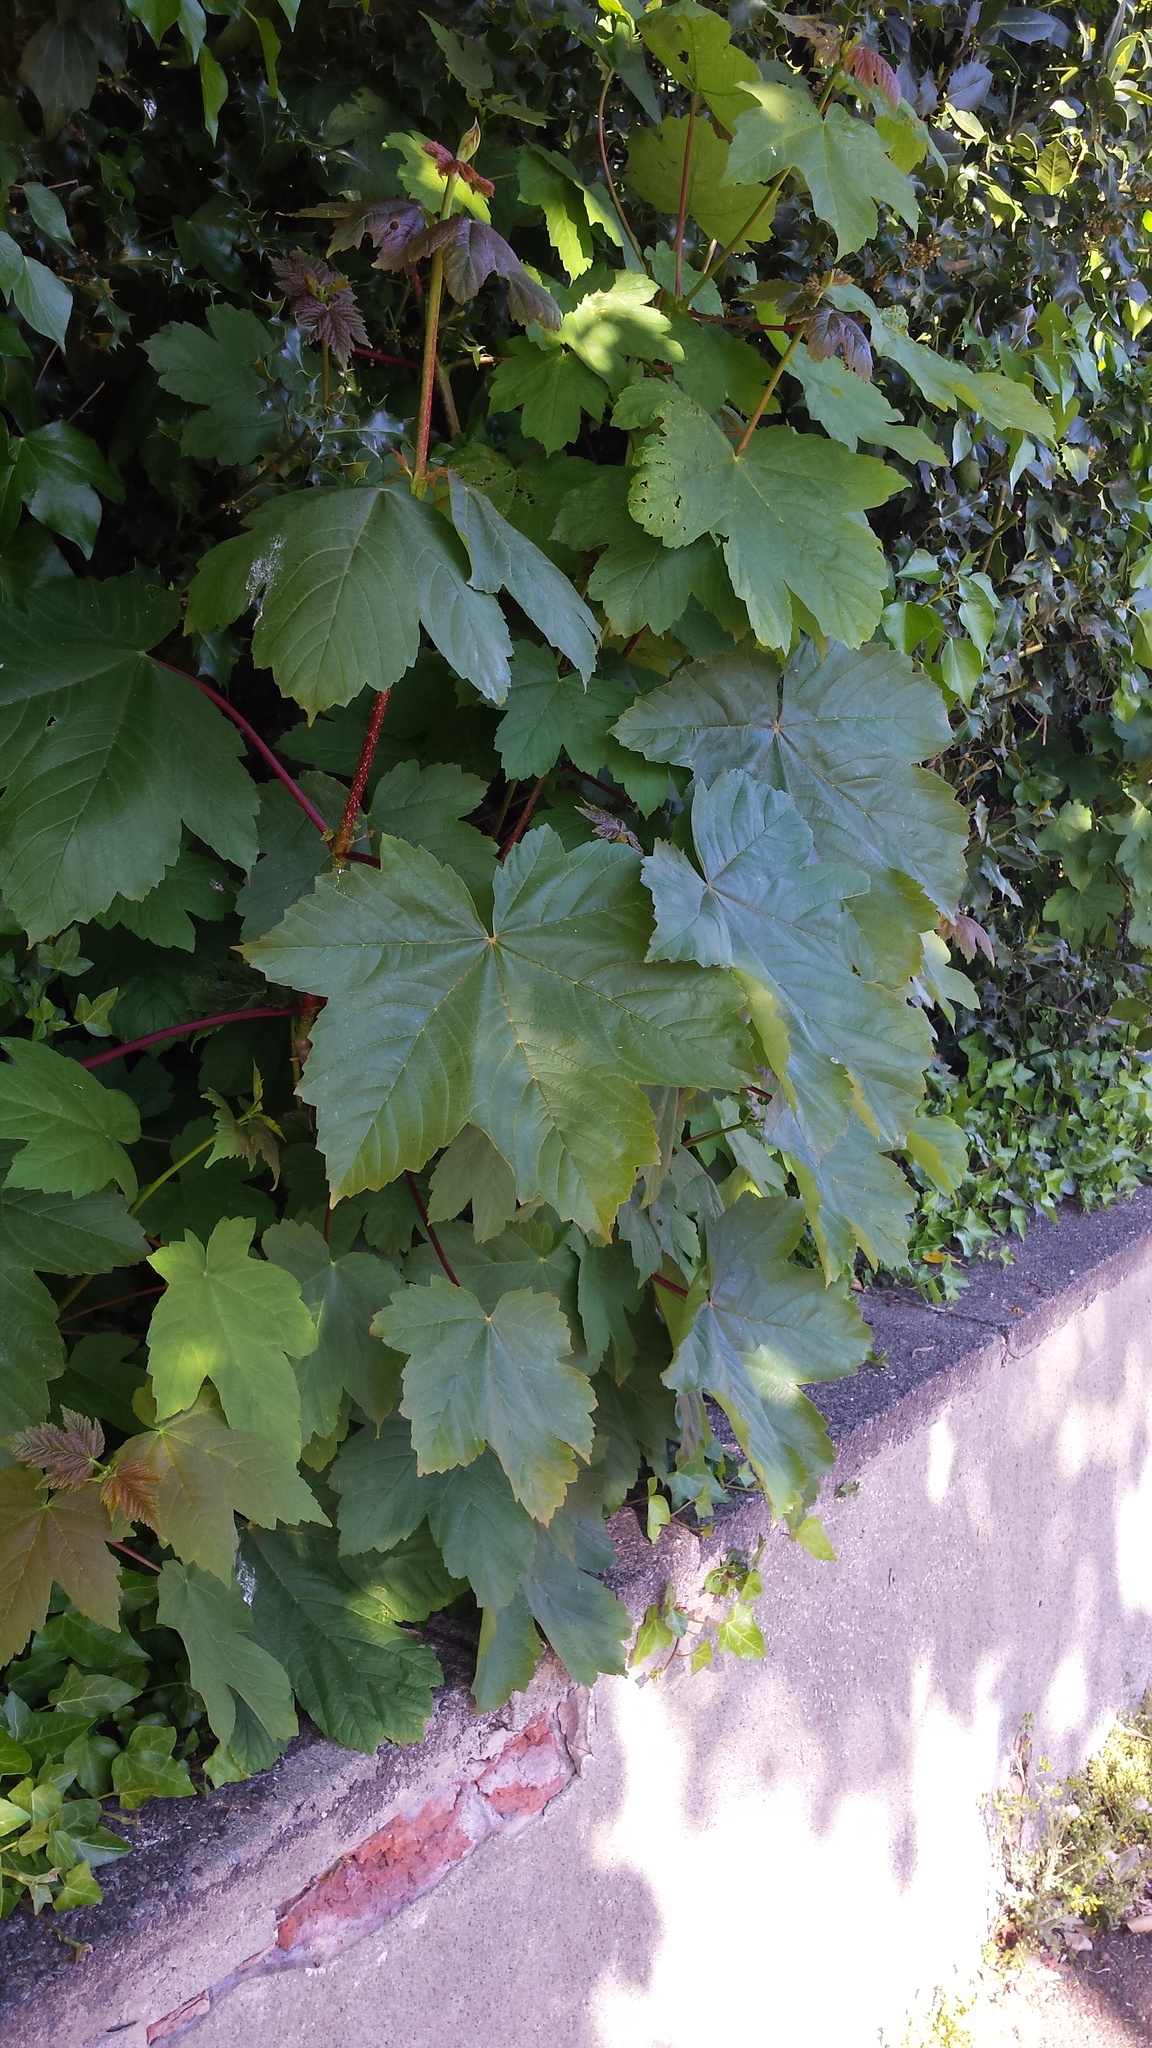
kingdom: Plantae
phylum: Tracheophyta
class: Magnoliopsida
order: Sapindales
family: Sapindaceae
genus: Acer
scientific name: Acer pseudoplatanus
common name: Sycamore
